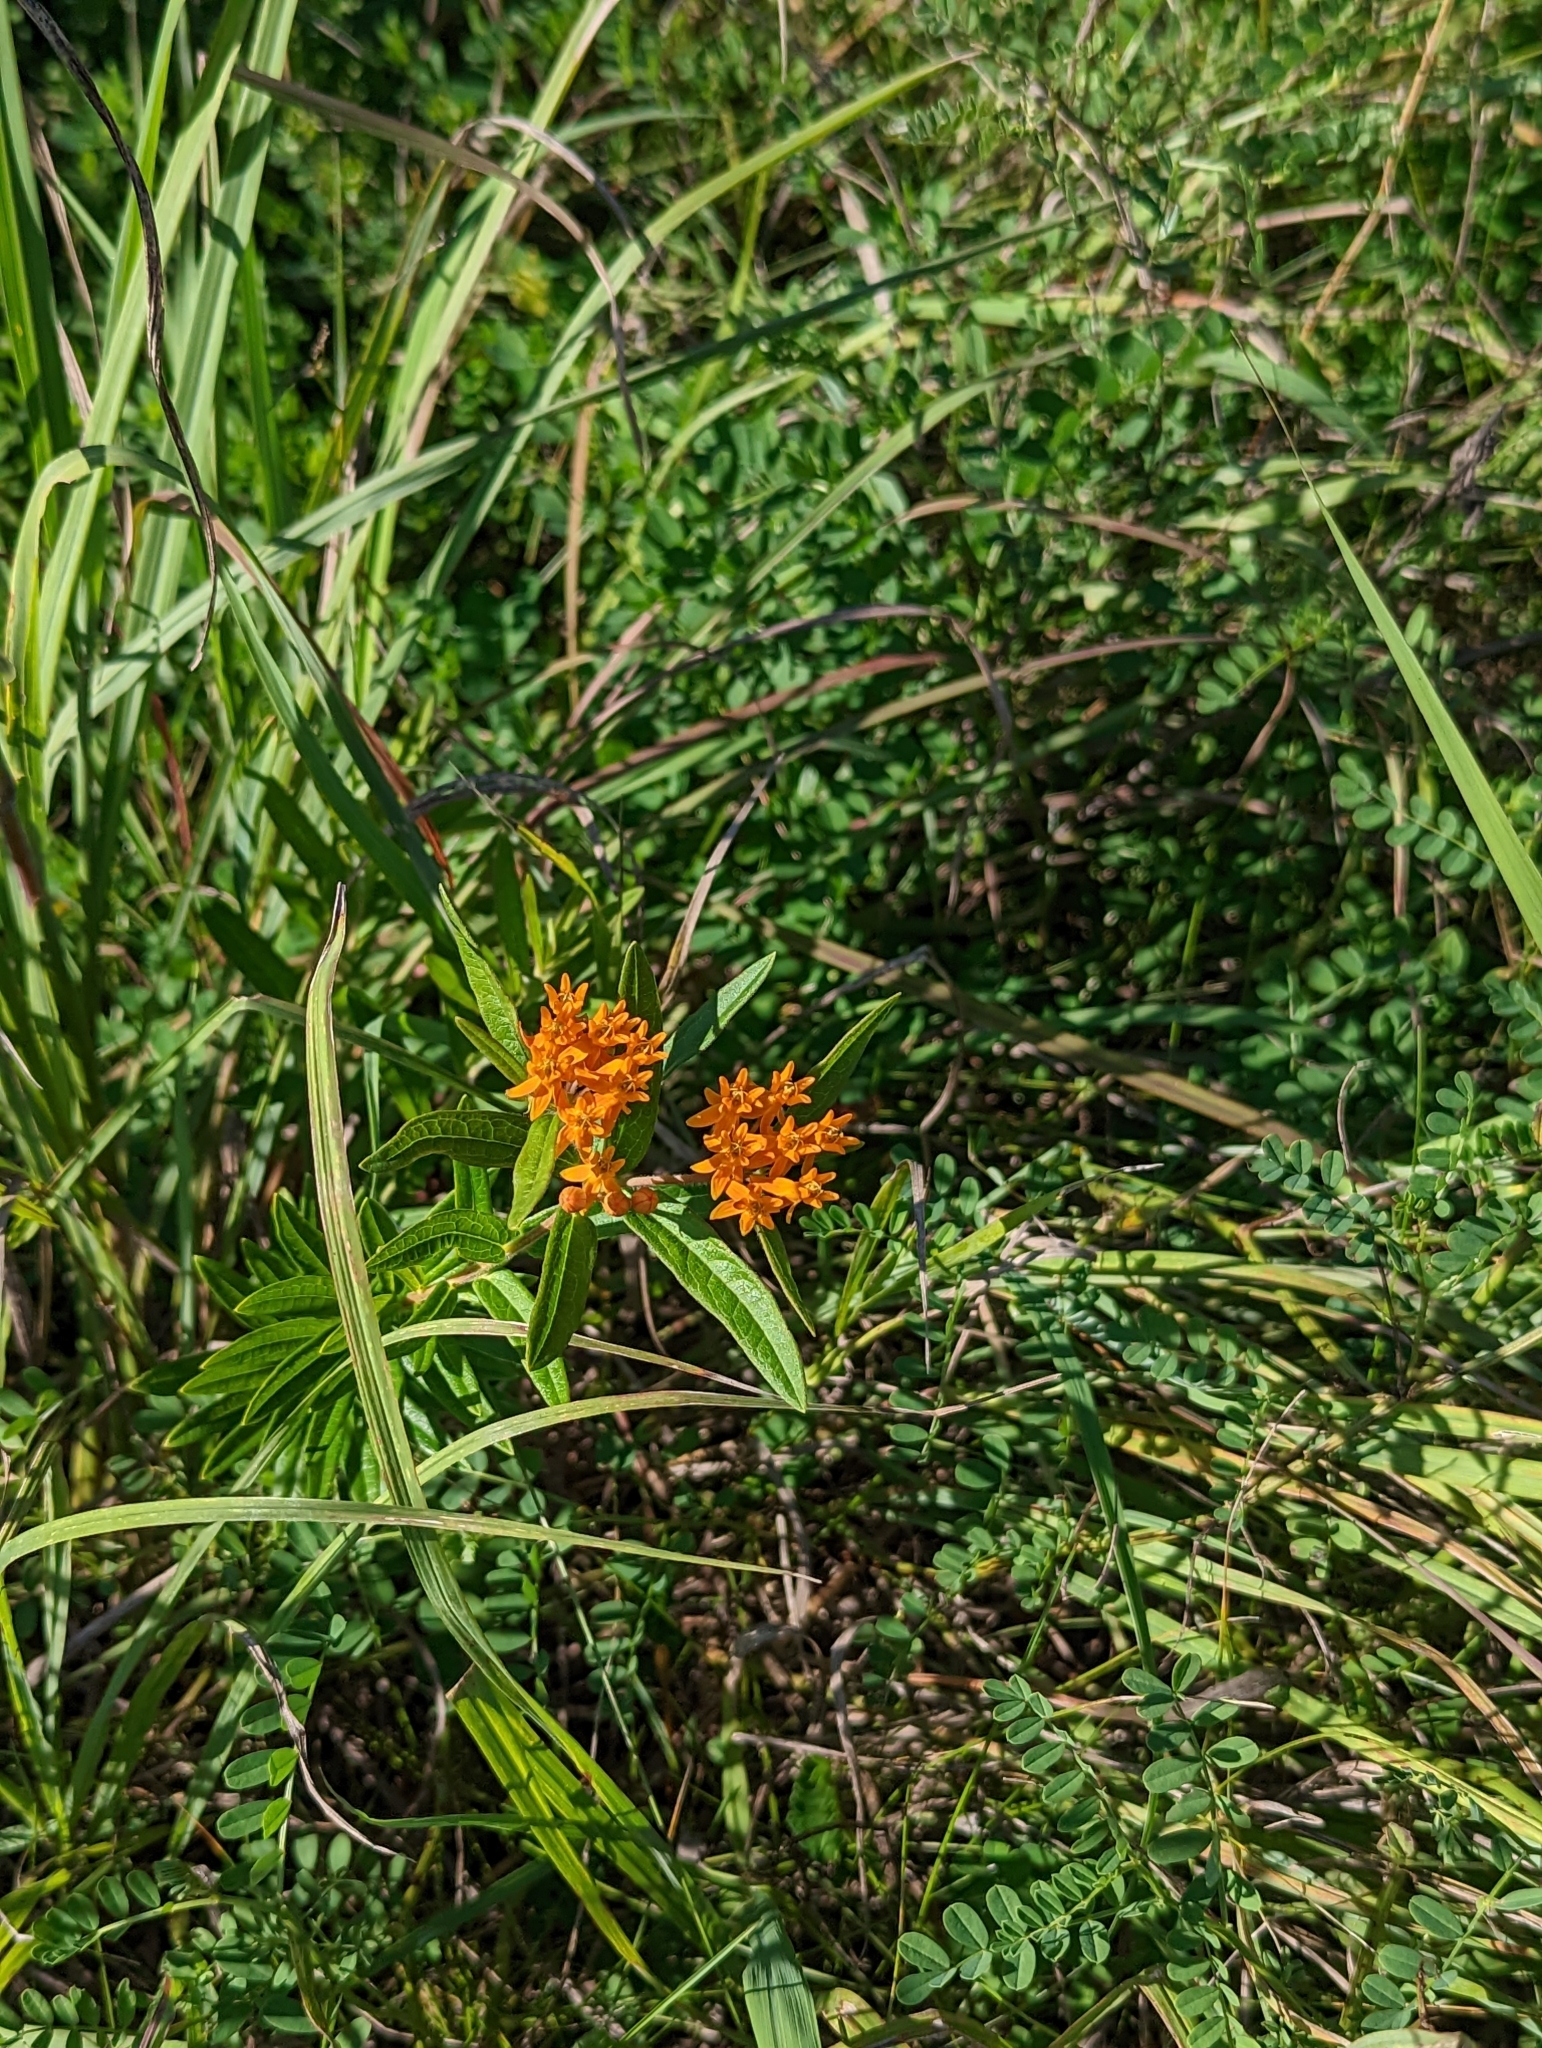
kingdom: Plantae
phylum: Tracheophyta
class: Magnoliopsida
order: Gentianales
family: Apocynaceae
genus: Asclepias
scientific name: Asclepias tuberosa
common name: Butterfly milkweed
